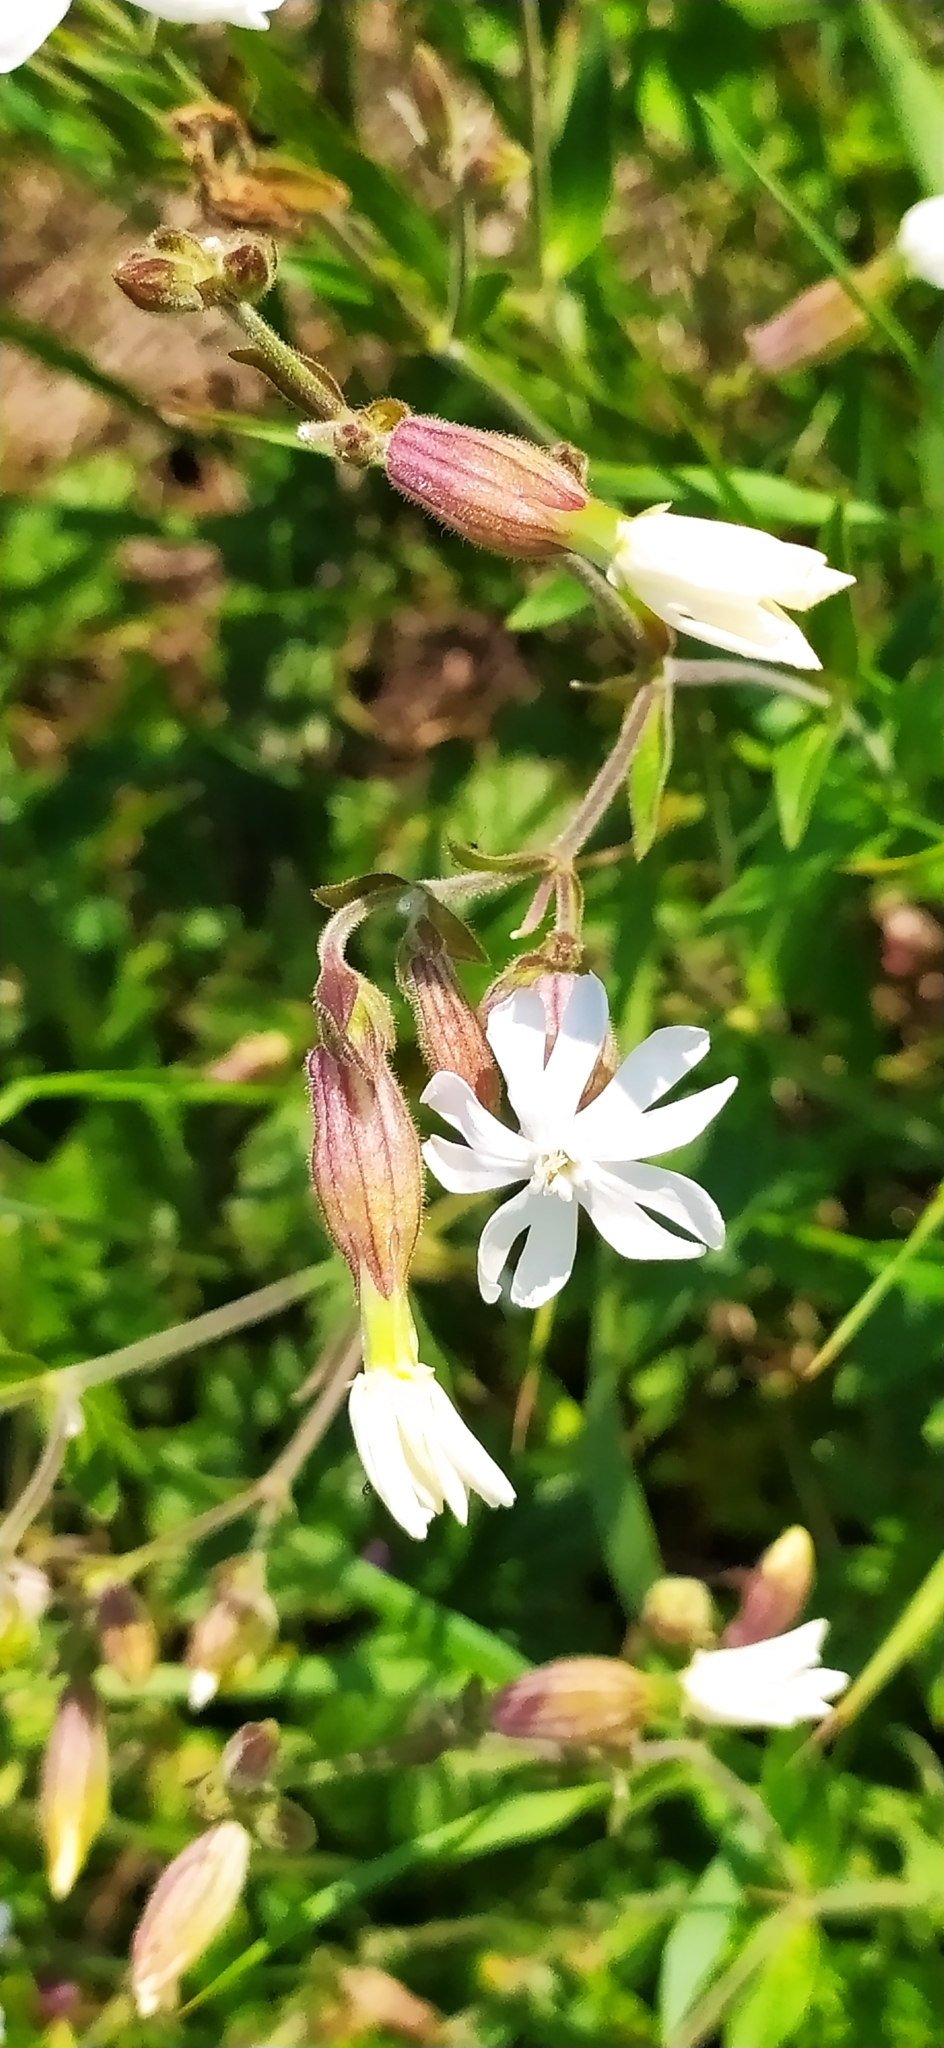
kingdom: Plantae
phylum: Tracheophyta
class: Magnoliopsida
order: Caryophyllales
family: Caryophyllaceae
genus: Silene
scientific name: Silene latifolia
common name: White campion
